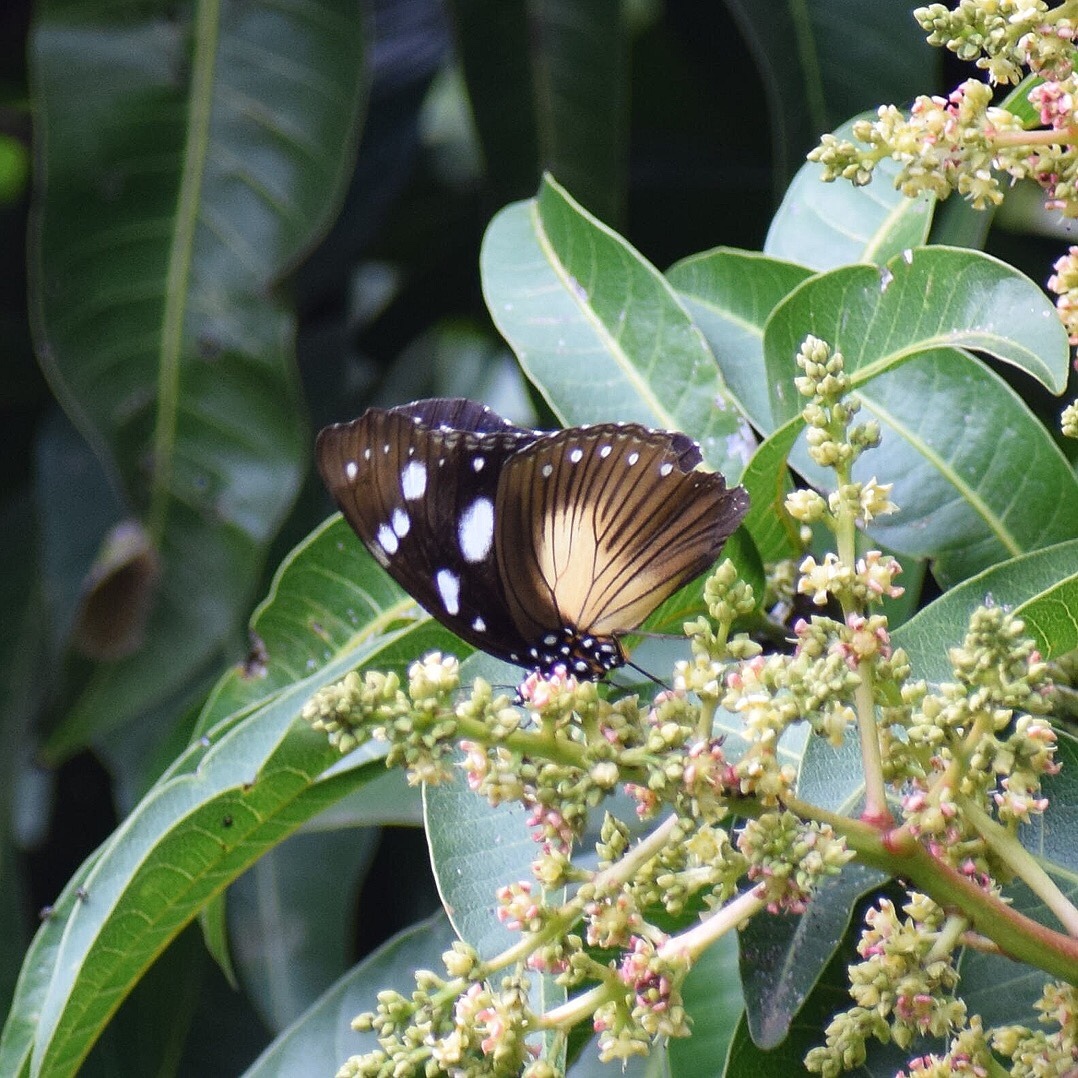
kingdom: Animalia
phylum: Arthropoda
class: Insecta
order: Lepidoptera
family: Nymphalidae
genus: Hypolimnas
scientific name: Hypolimnas dubius
